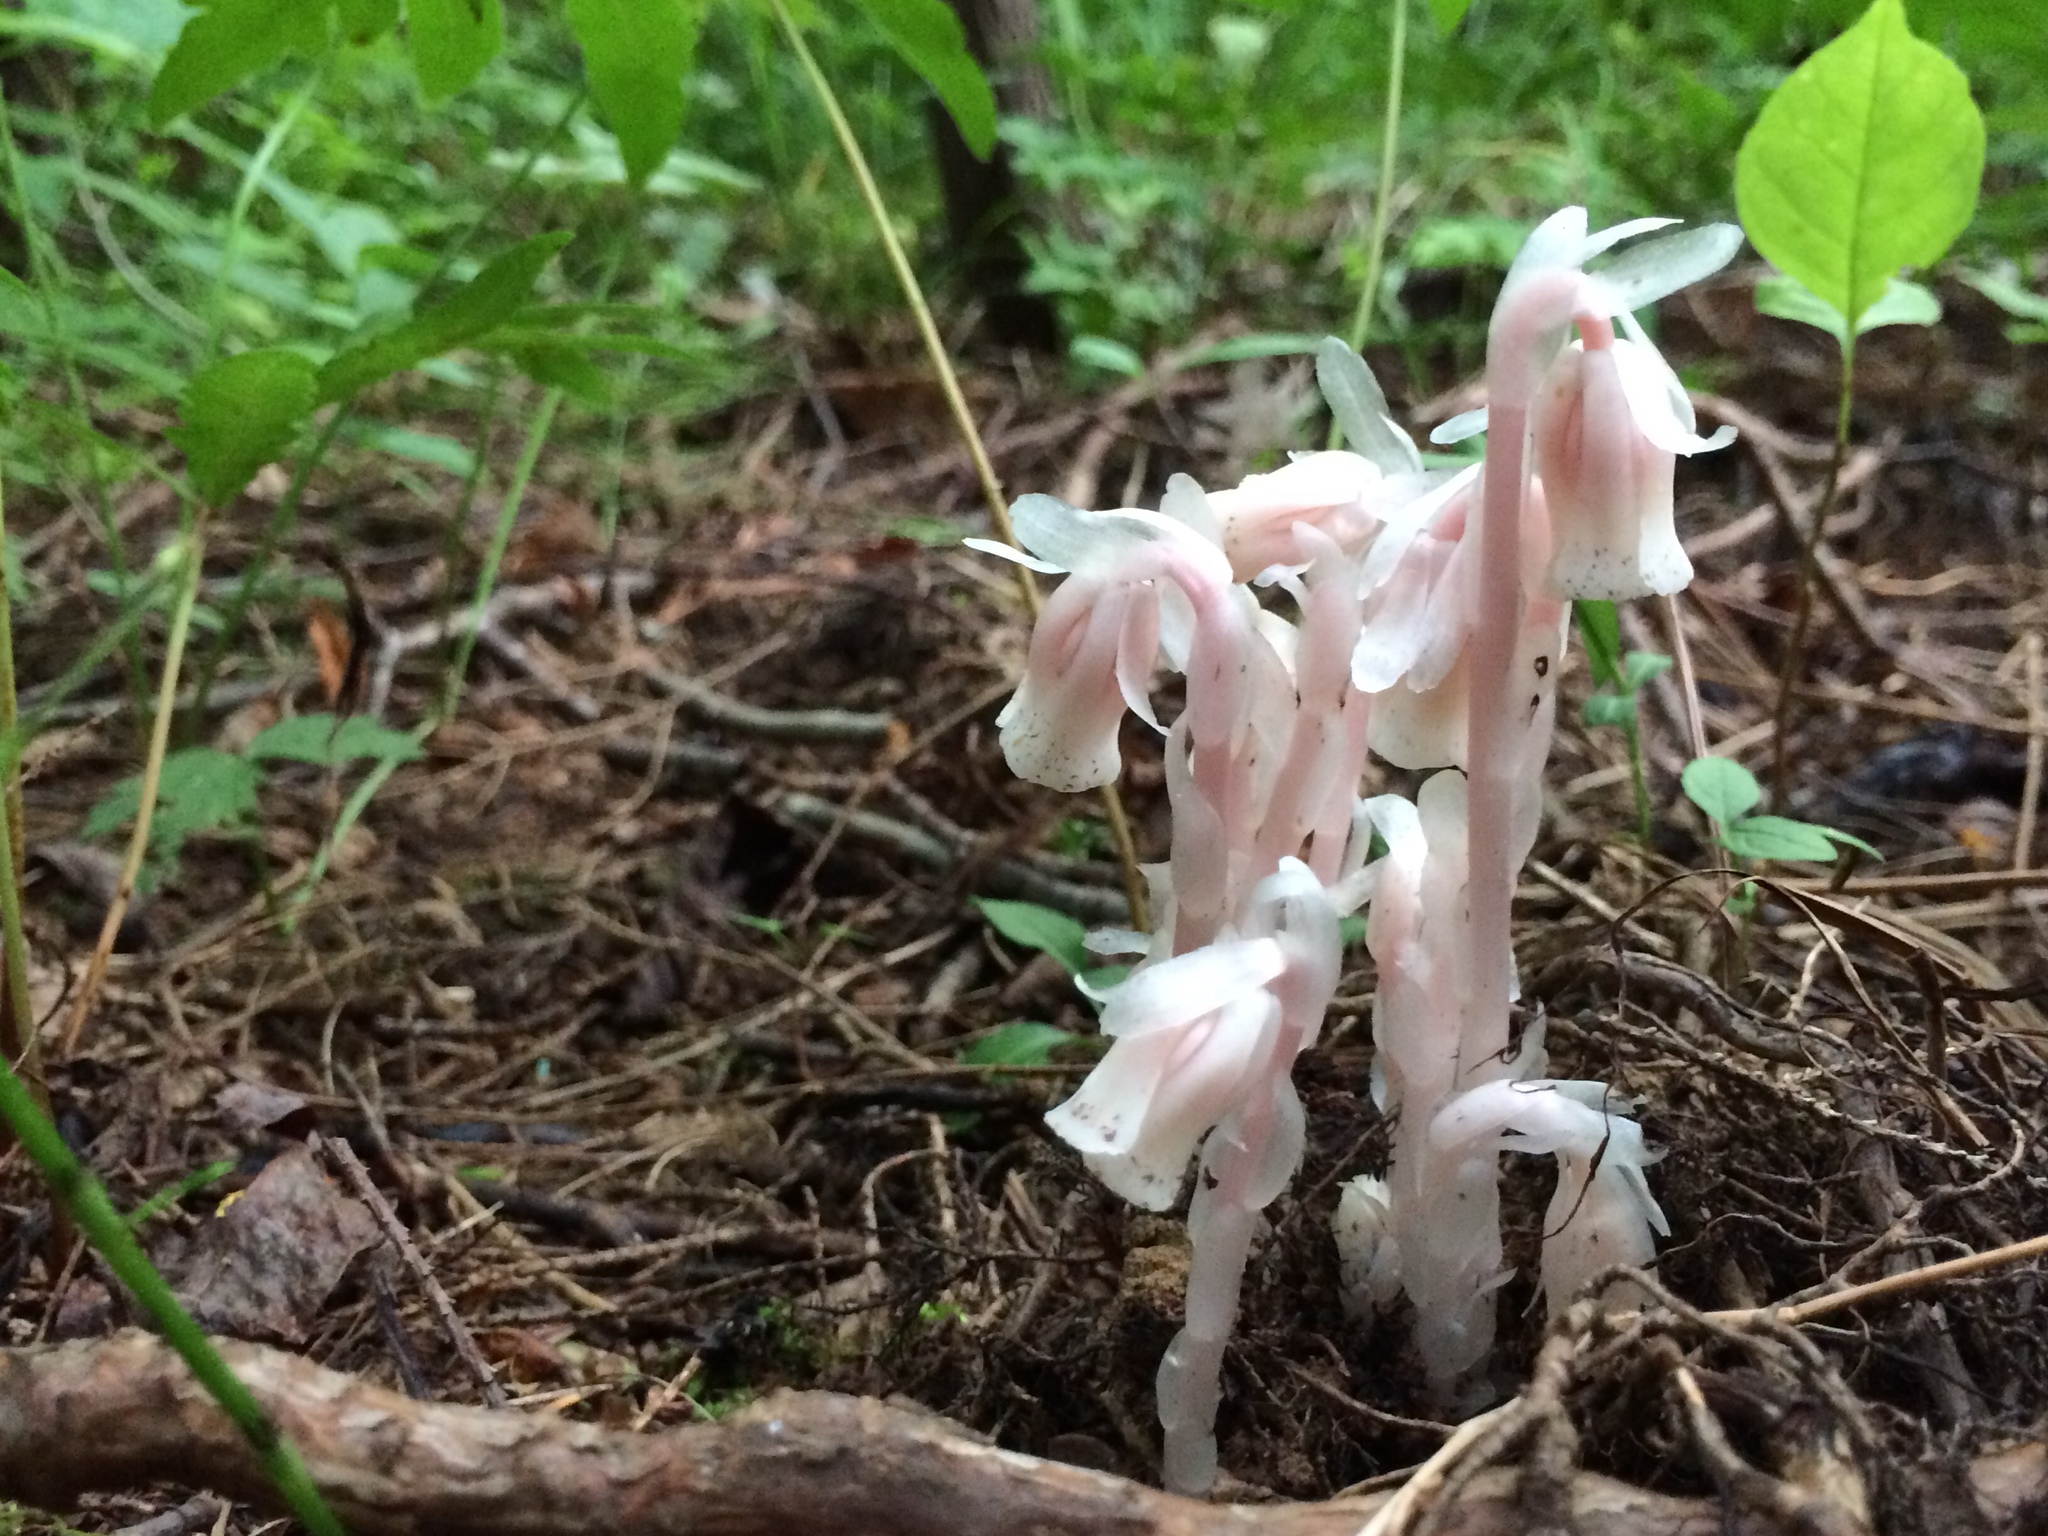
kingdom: Plantae
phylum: Tracheophyta
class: Magnoliopsida
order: Ericales
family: Ericaceae
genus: Monotropa
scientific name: Monotropa uniflora
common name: Convulsion root
